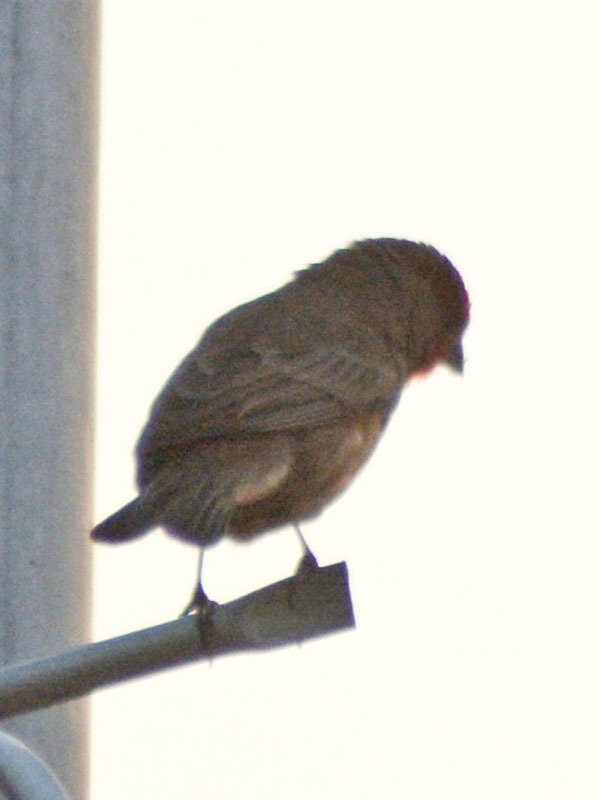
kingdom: Animalia
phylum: Chordata
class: Aves
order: Passeriformes
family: Fringillidae
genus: Haemorhous
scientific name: Haemorhous mexicanus
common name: House finch
